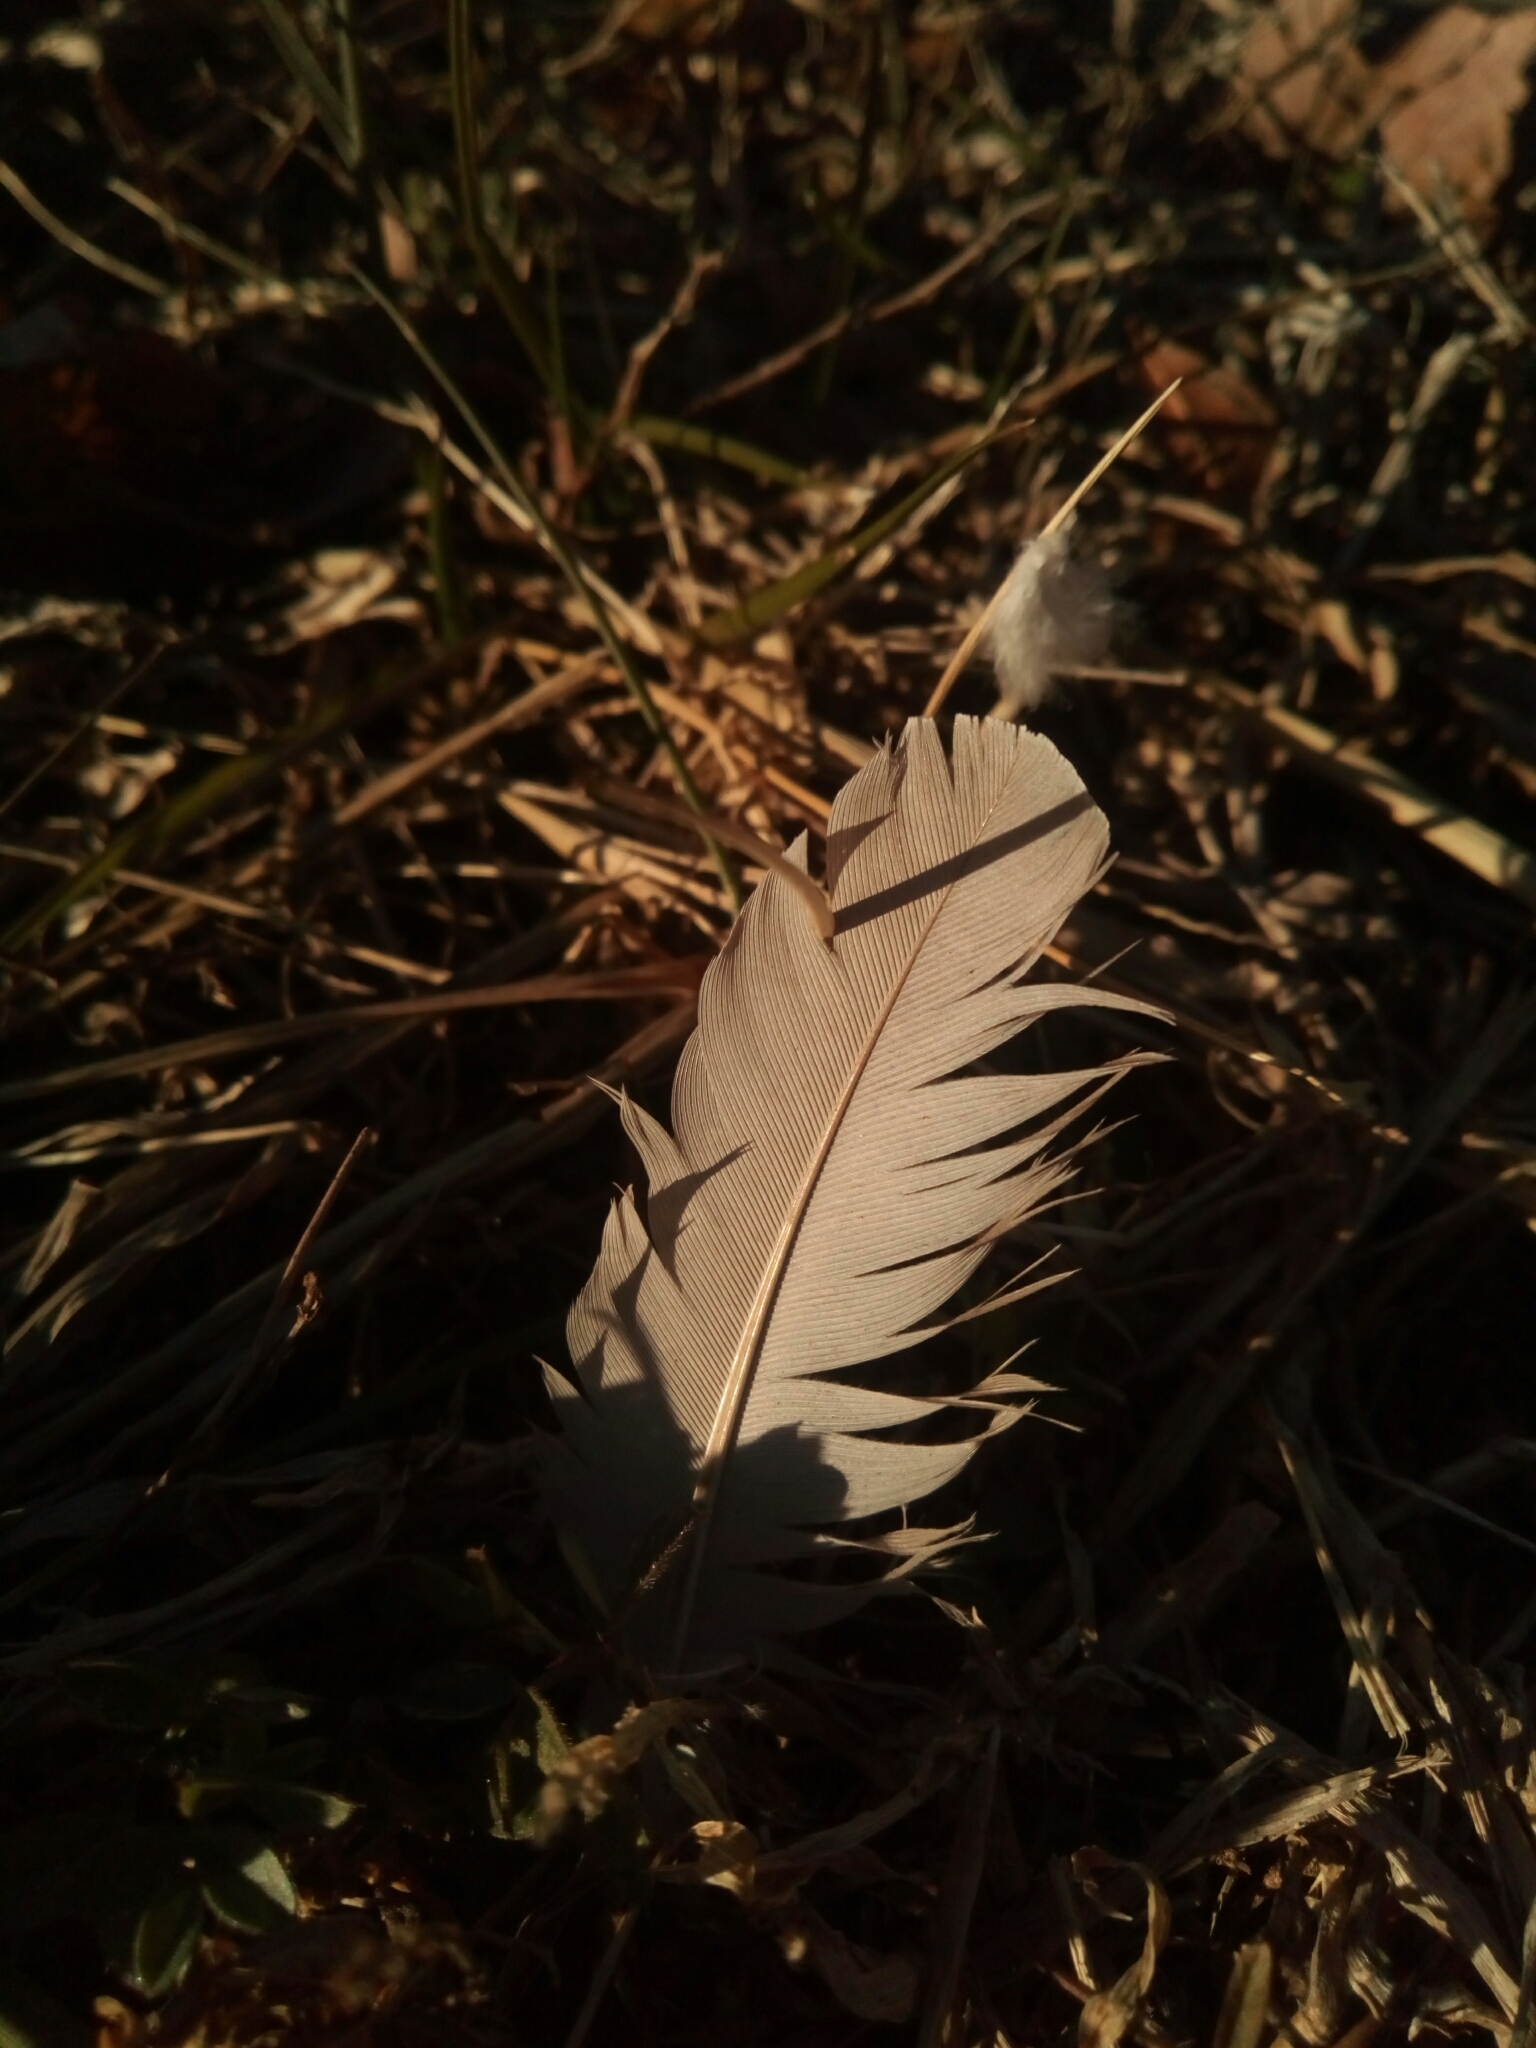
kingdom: Animalia
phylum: Chordata
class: Aves
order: Columbiformes
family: Columbidae
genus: Zenaida
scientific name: Zenaida macroura
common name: Mourning dove
